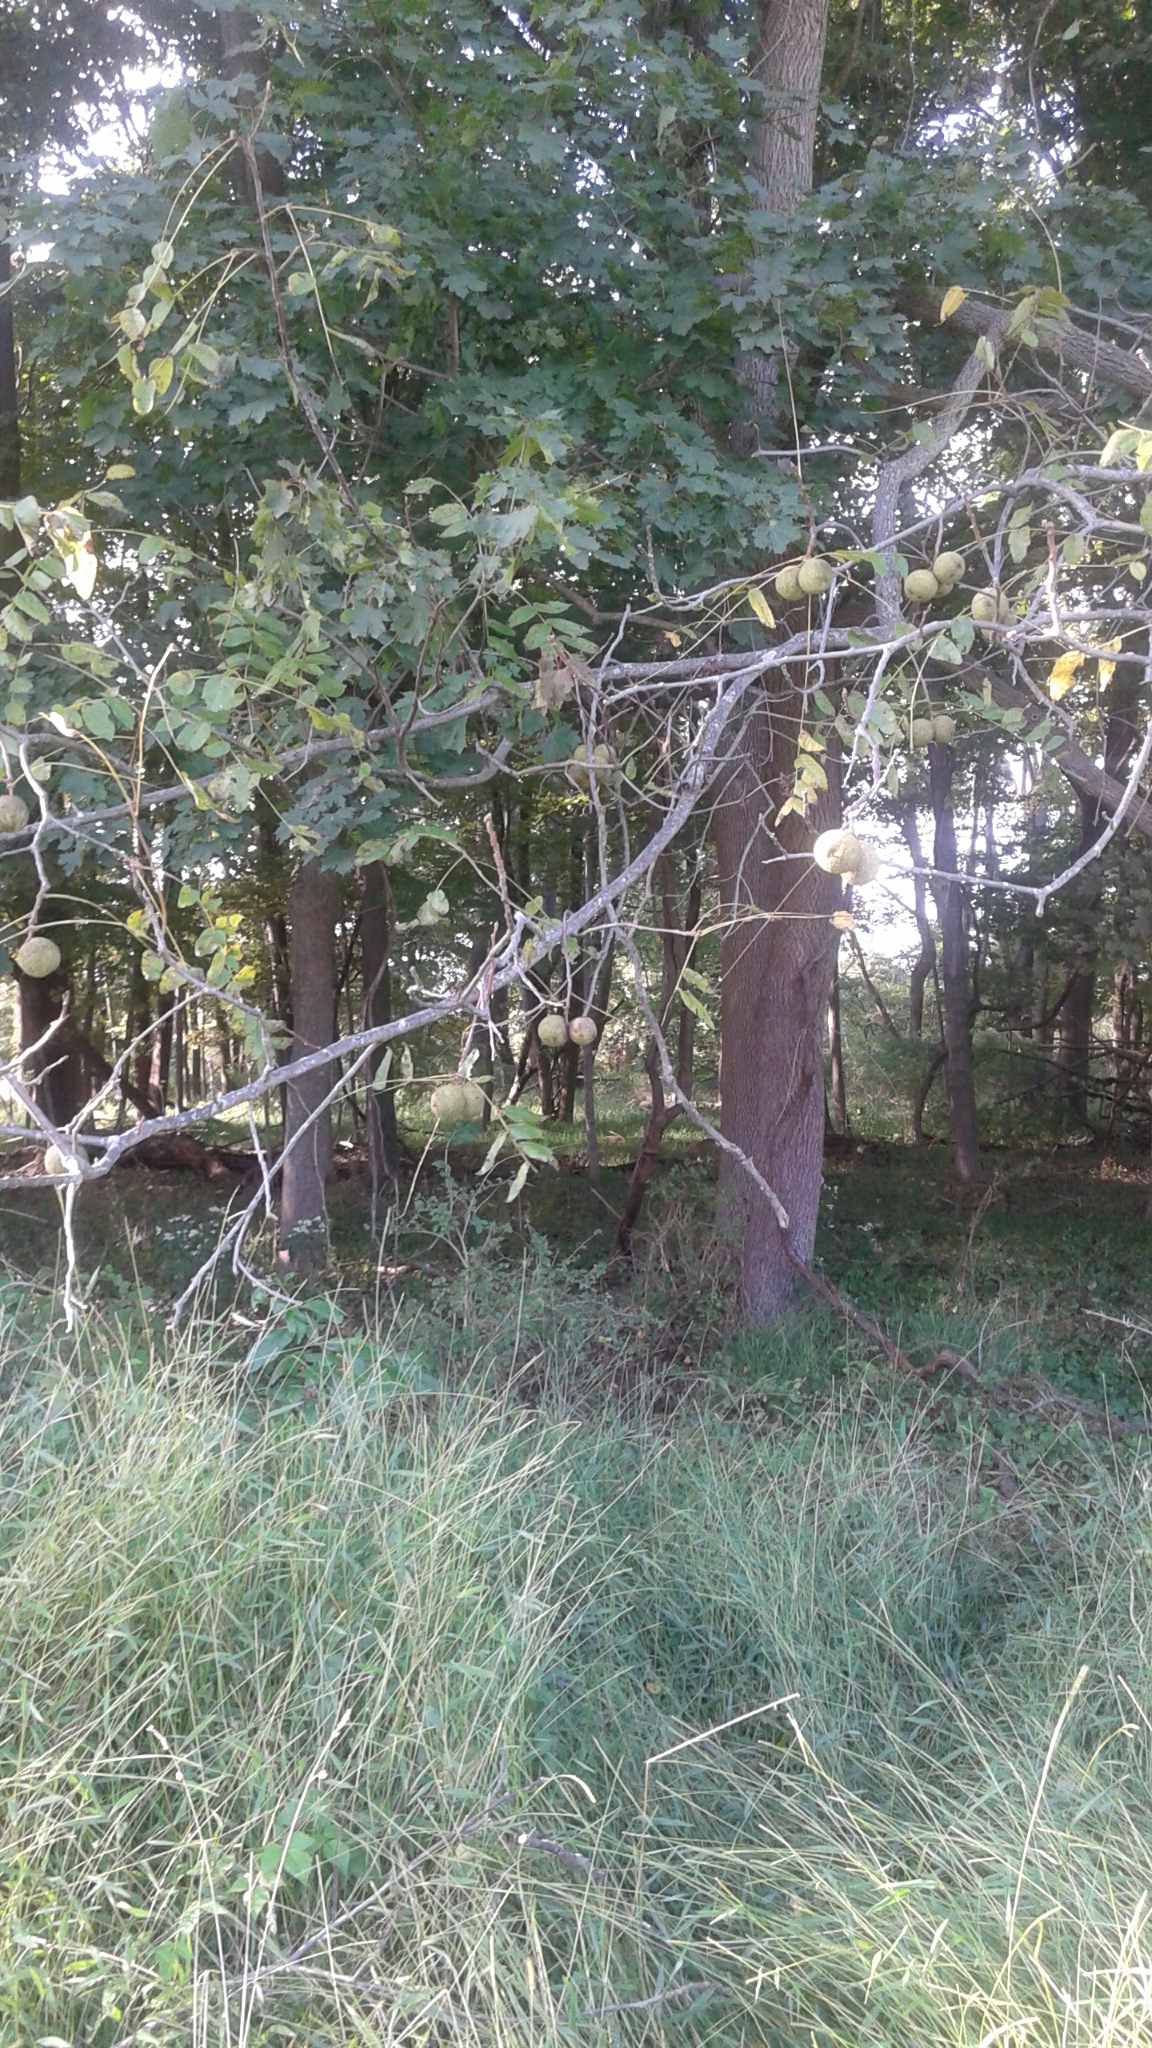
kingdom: Plantae
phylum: Tracheophyta
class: Magnoliopsida
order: Fagales
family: Juglandaceae
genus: Juglans
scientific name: Juglans nigra
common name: Black walnut
